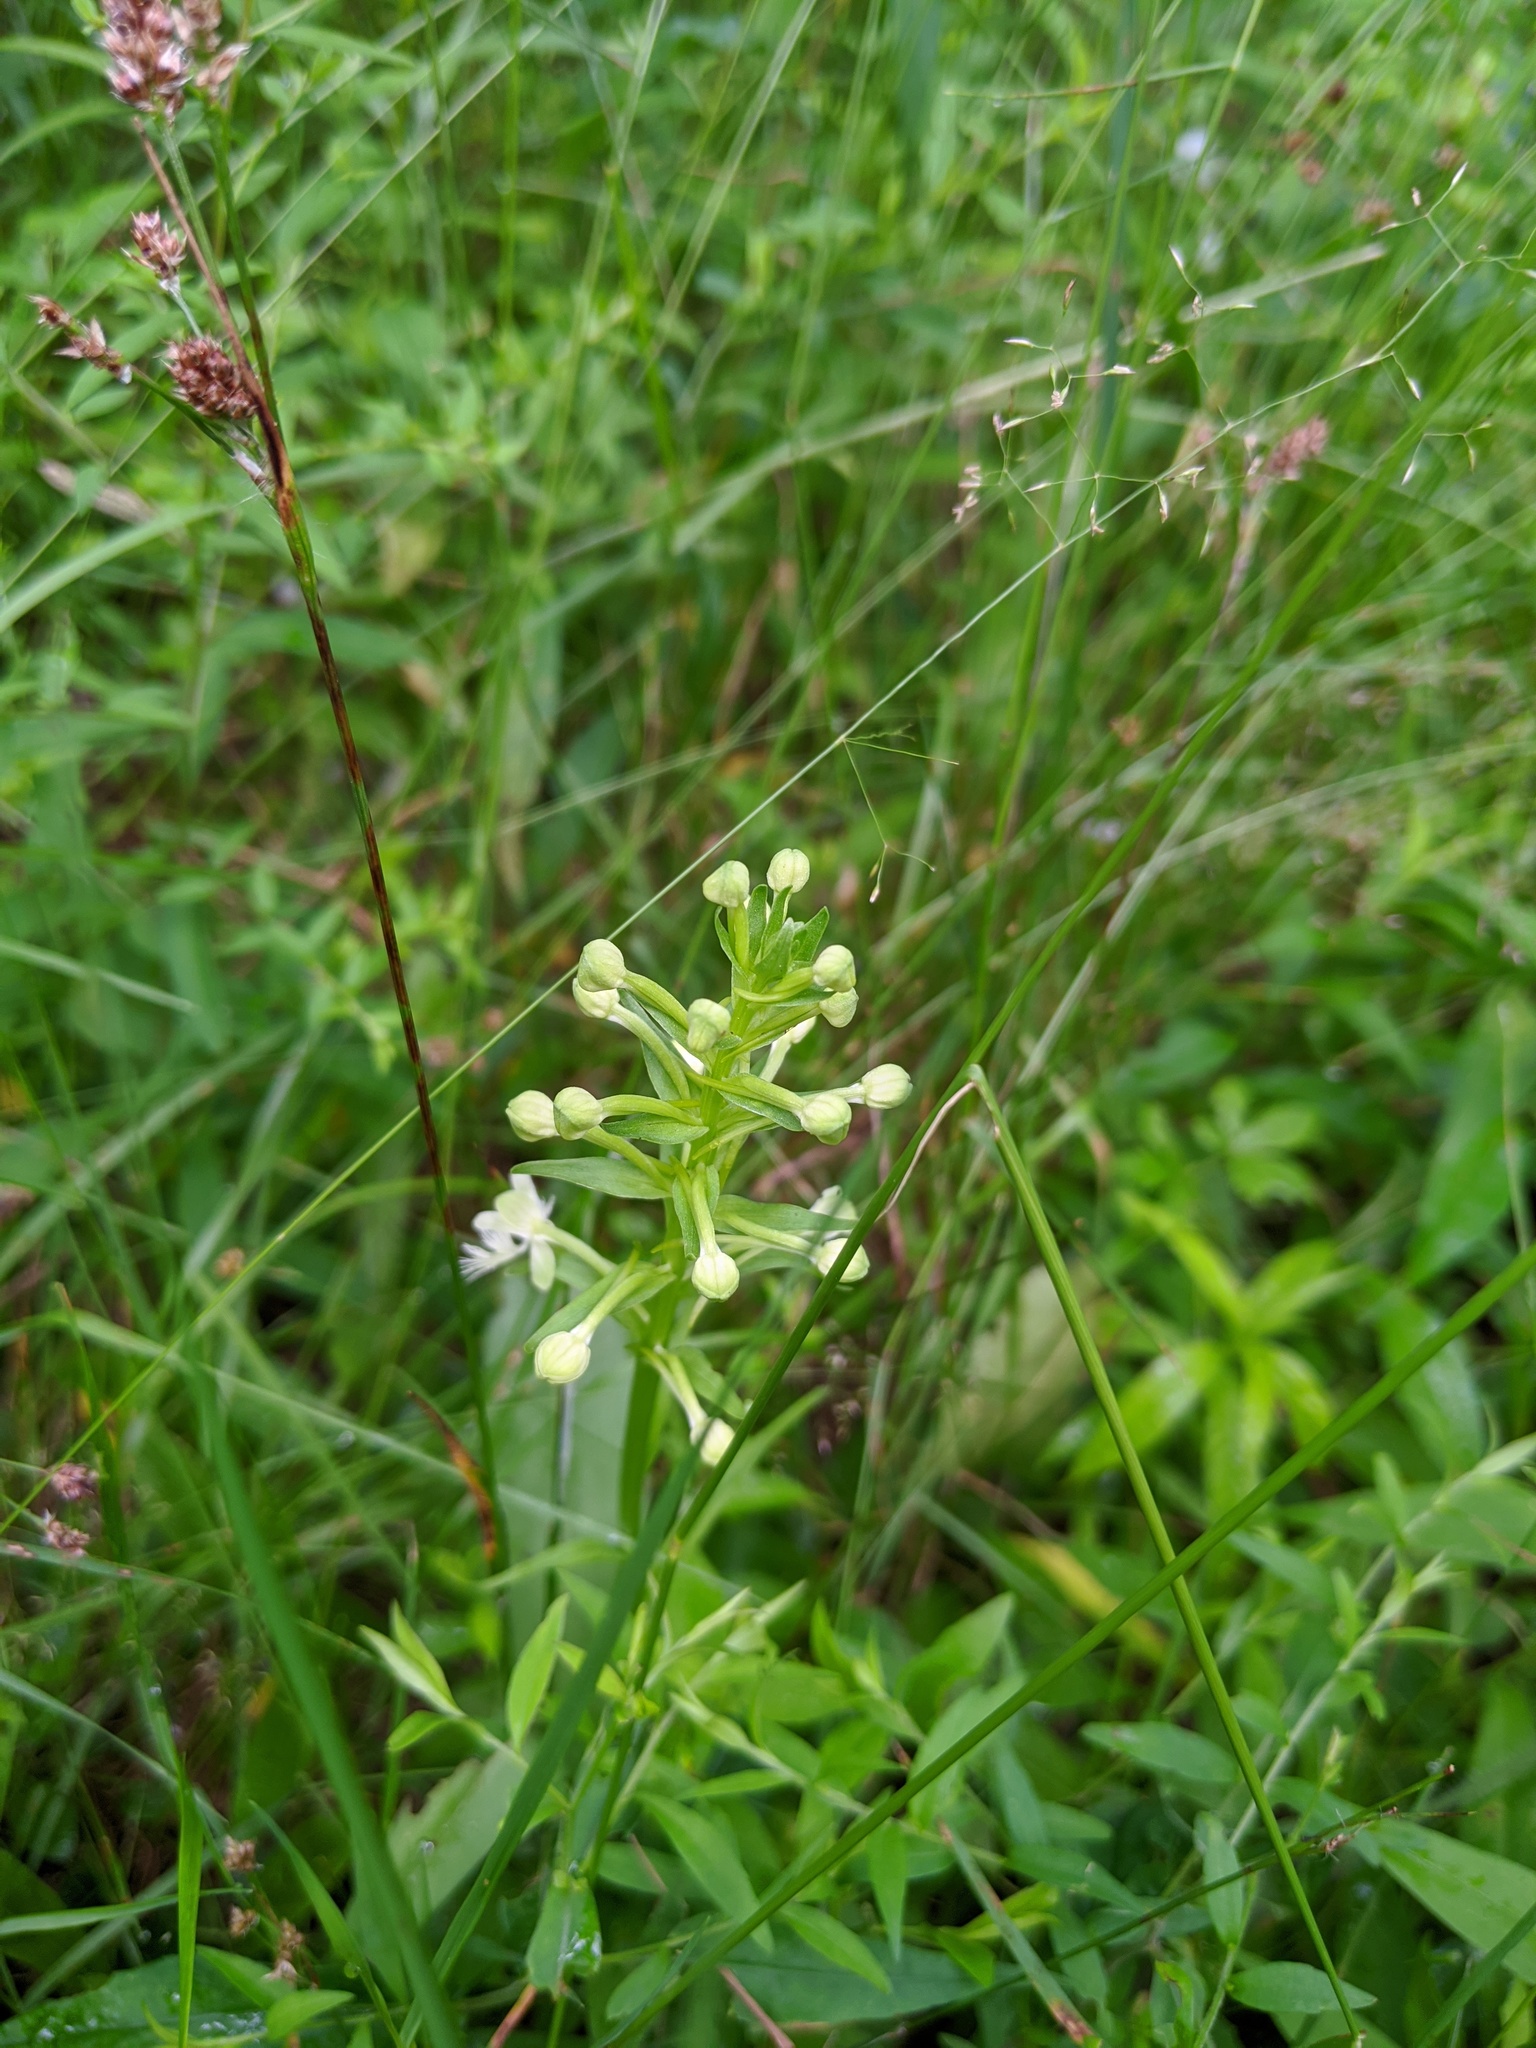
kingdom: Plantae
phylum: Tracheophyta
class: Liliopsida
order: Asparagales
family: Orchidaceae
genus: Platanthera
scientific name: Platanthera lacera
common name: Green fringed orchid
